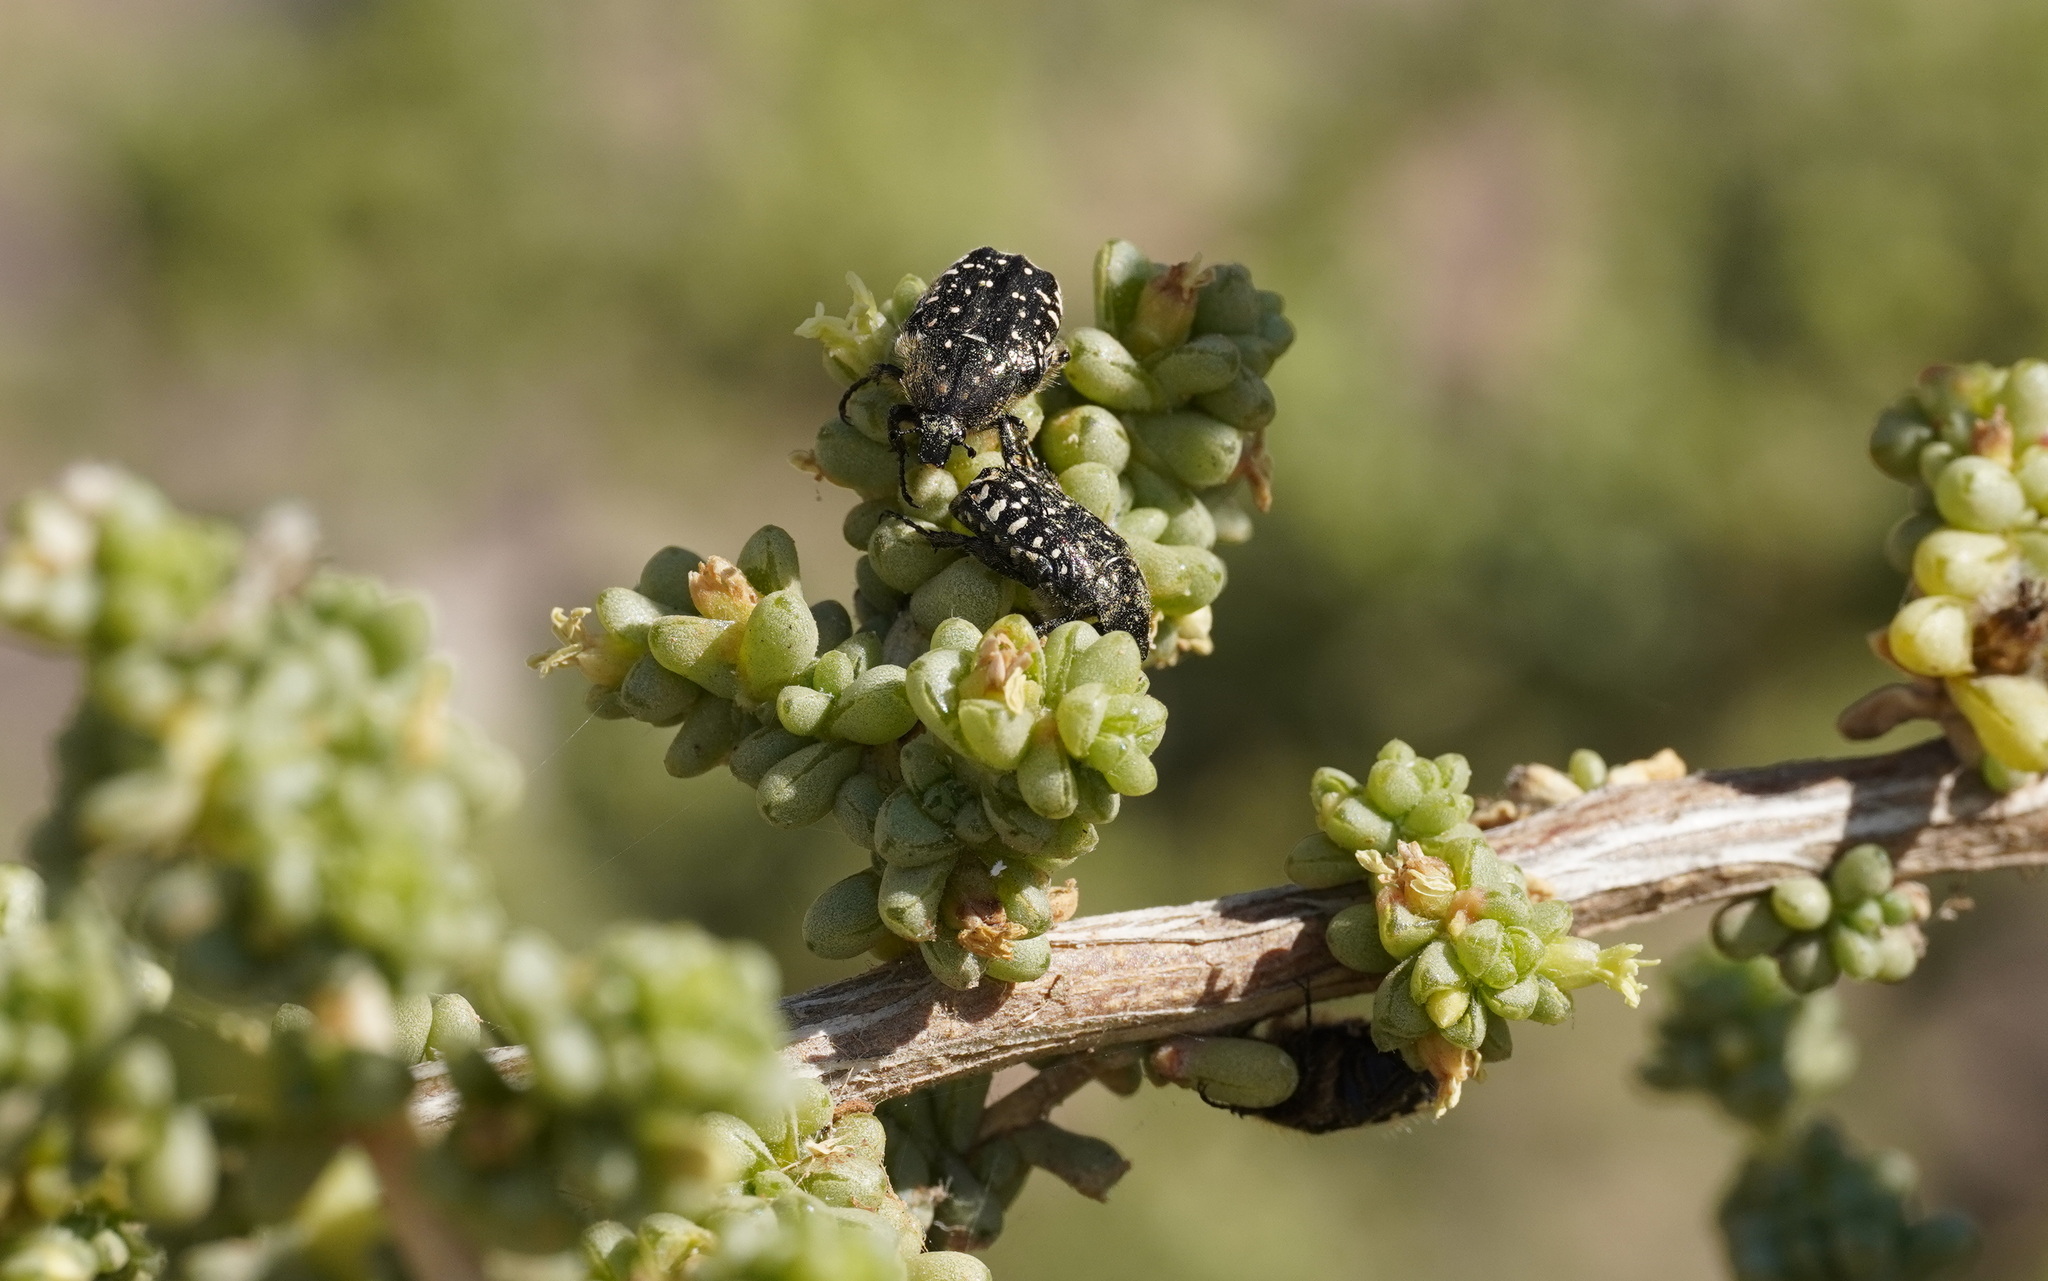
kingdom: Animalia
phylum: Arthropoda
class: Insecta
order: Coleoptera
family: Scarabaeidae
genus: Oxythyrea
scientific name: Oxythyrea funesta
